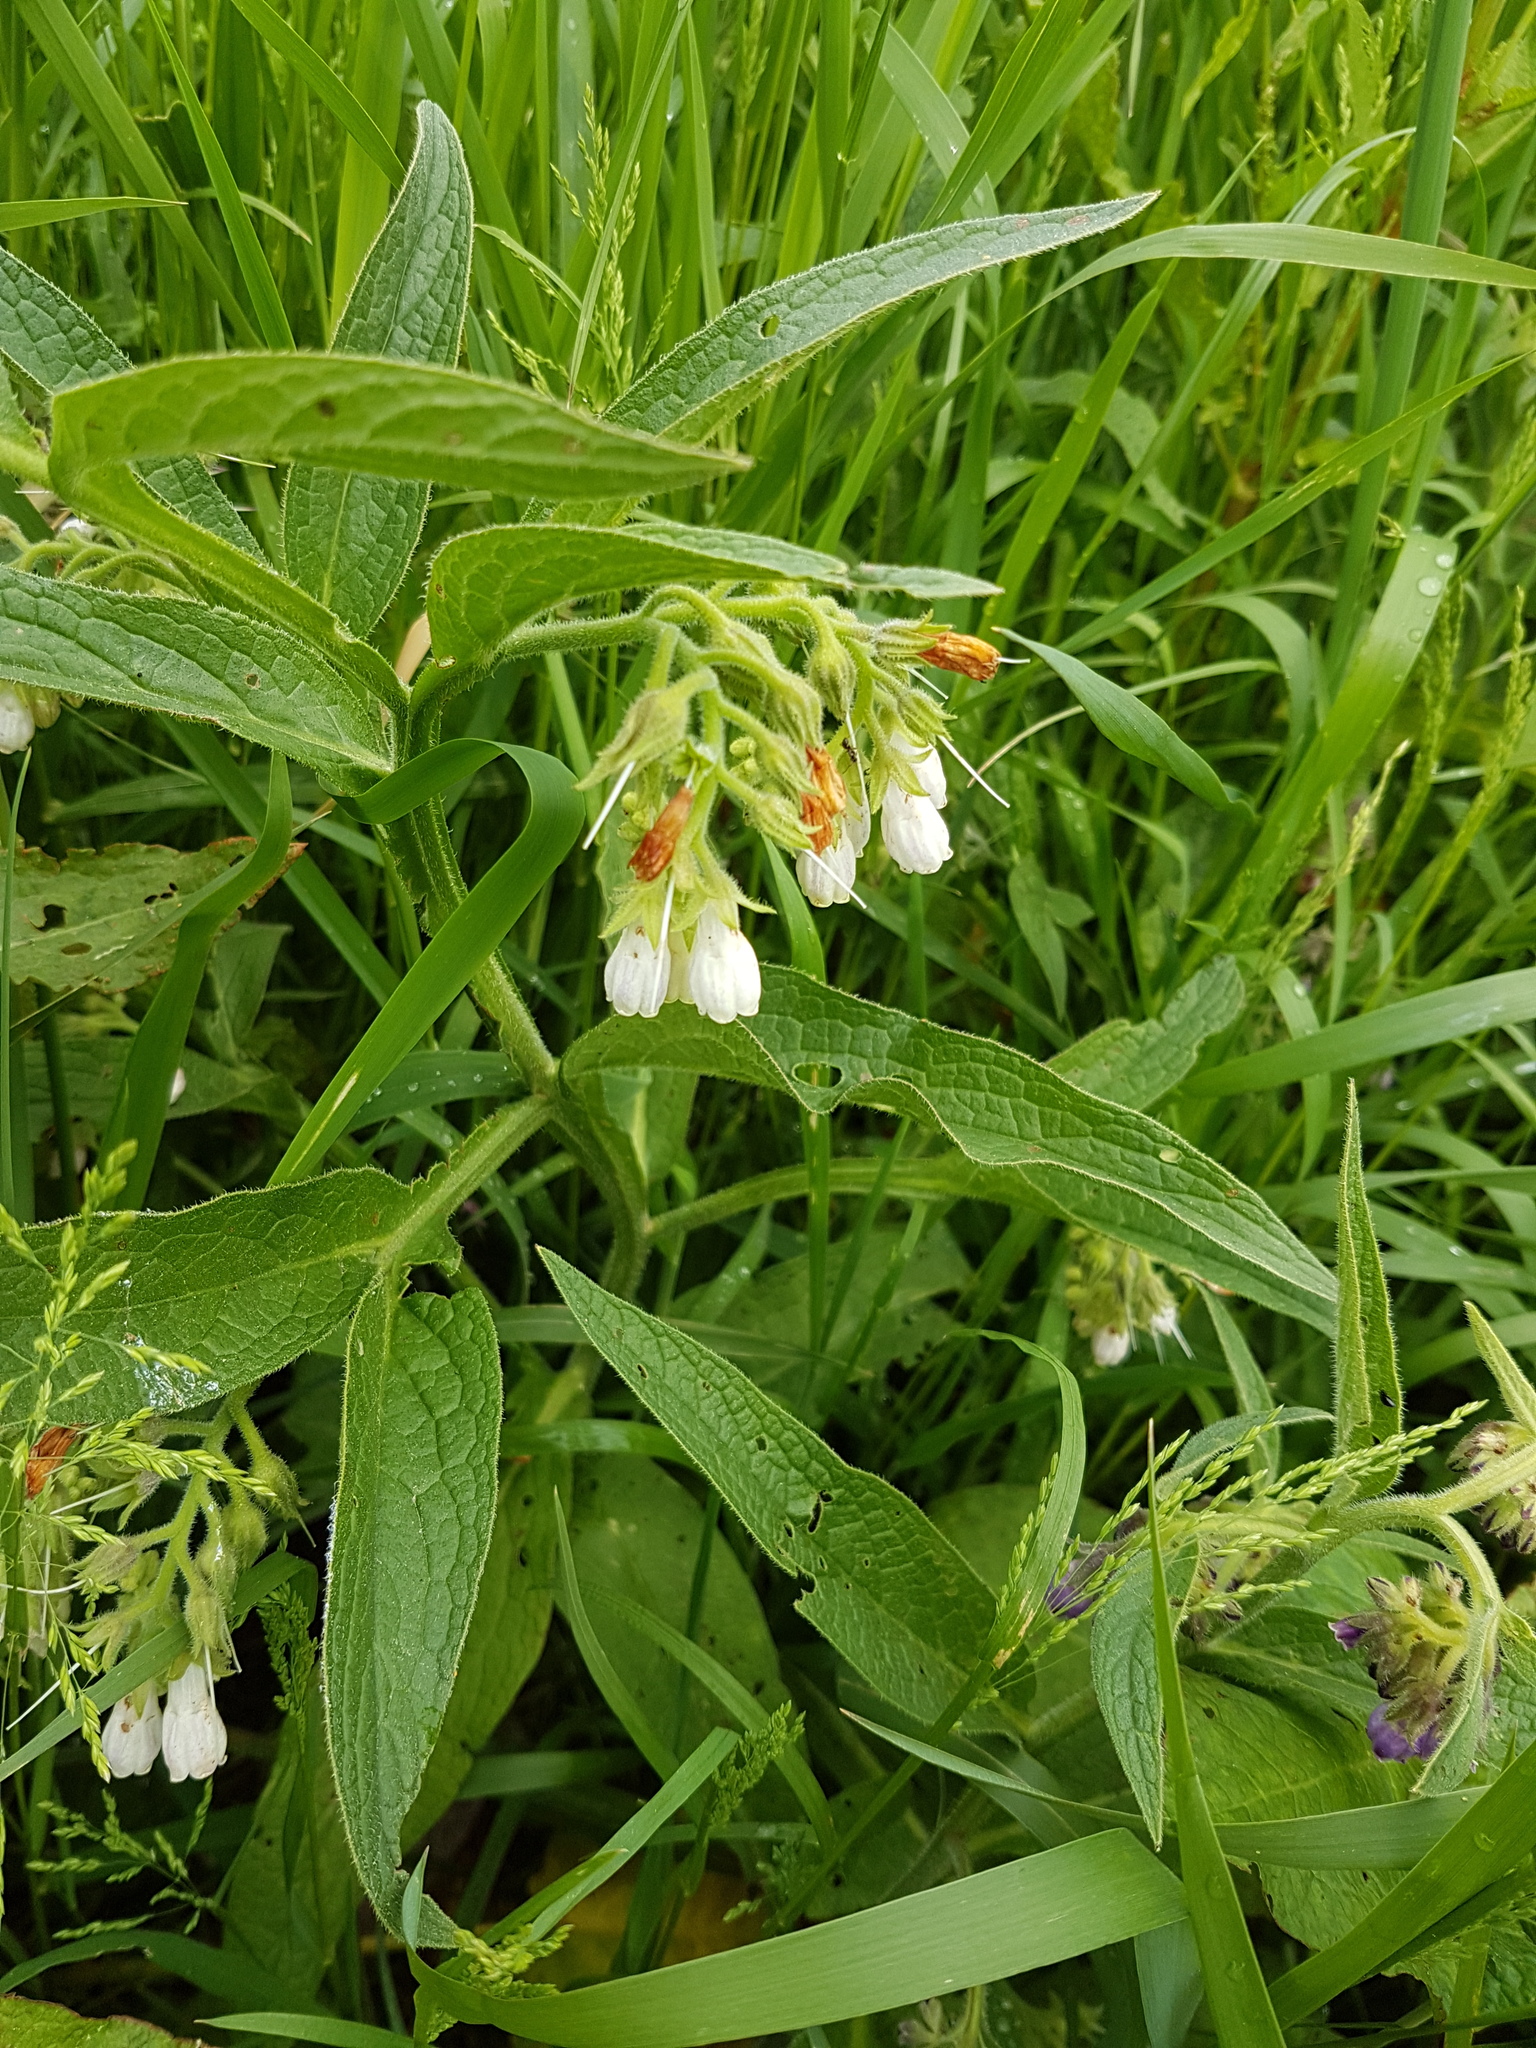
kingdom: Plantae
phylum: Tracheophyta
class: Magnoliopsida
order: Boraginales
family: Boraginaceae
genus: Symphytum
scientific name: Symphytum officinale
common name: Common comfrey
